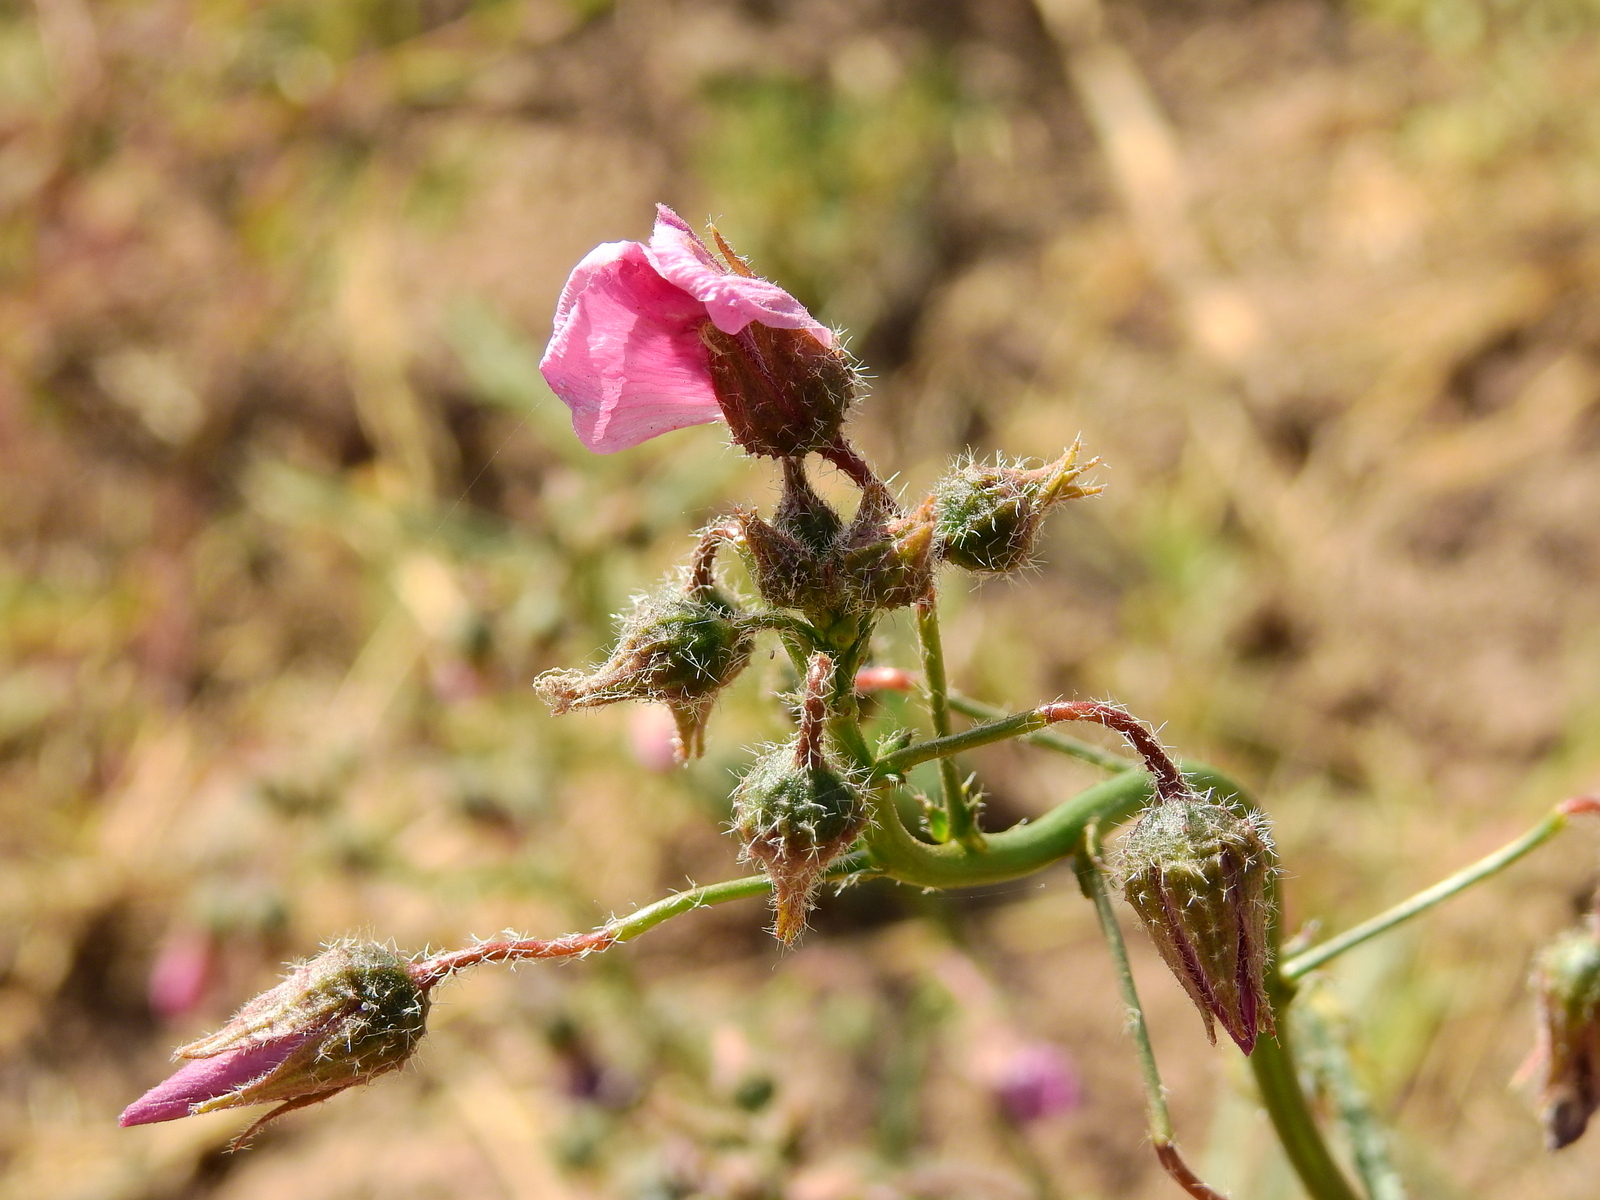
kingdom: Plantae
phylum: Tracheophyta
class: Magnoliopsida
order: Malvales
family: Malvaceae
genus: Lecanophora
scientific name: Lecanophora heterophylla
